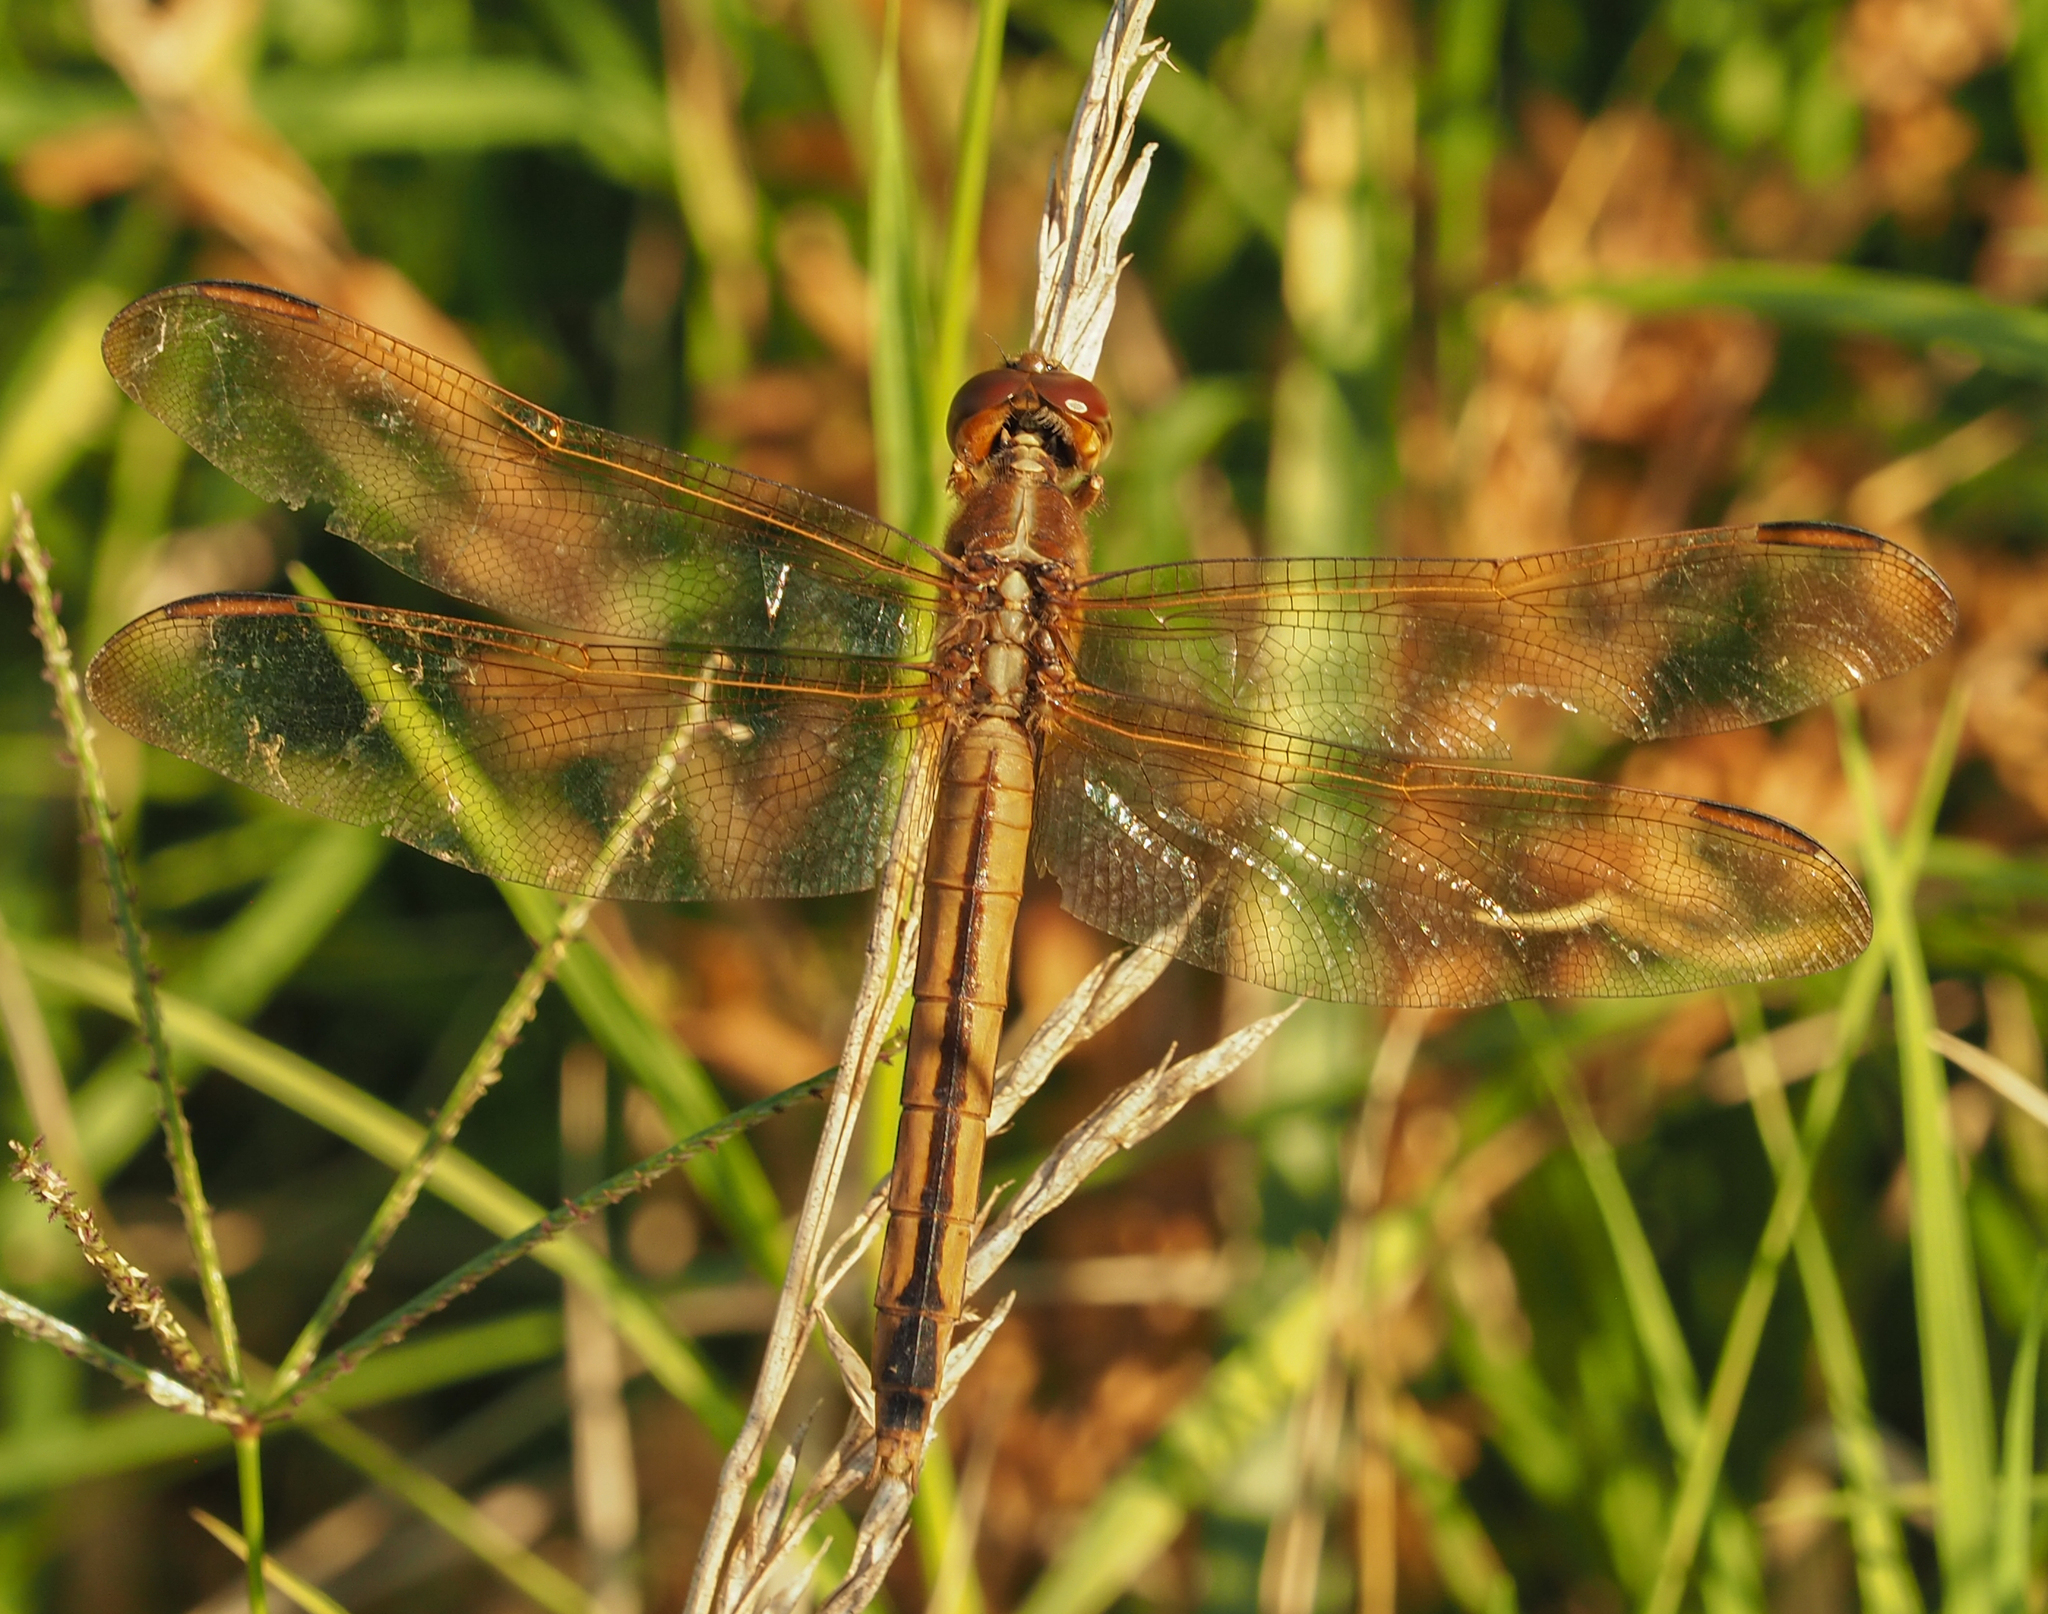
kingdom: Animalia
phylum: Arthropoda
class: Insecta
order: Odonata
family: Libellulidae
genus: Libellula
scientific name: Libellula needhami
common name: Needham's skimmer
